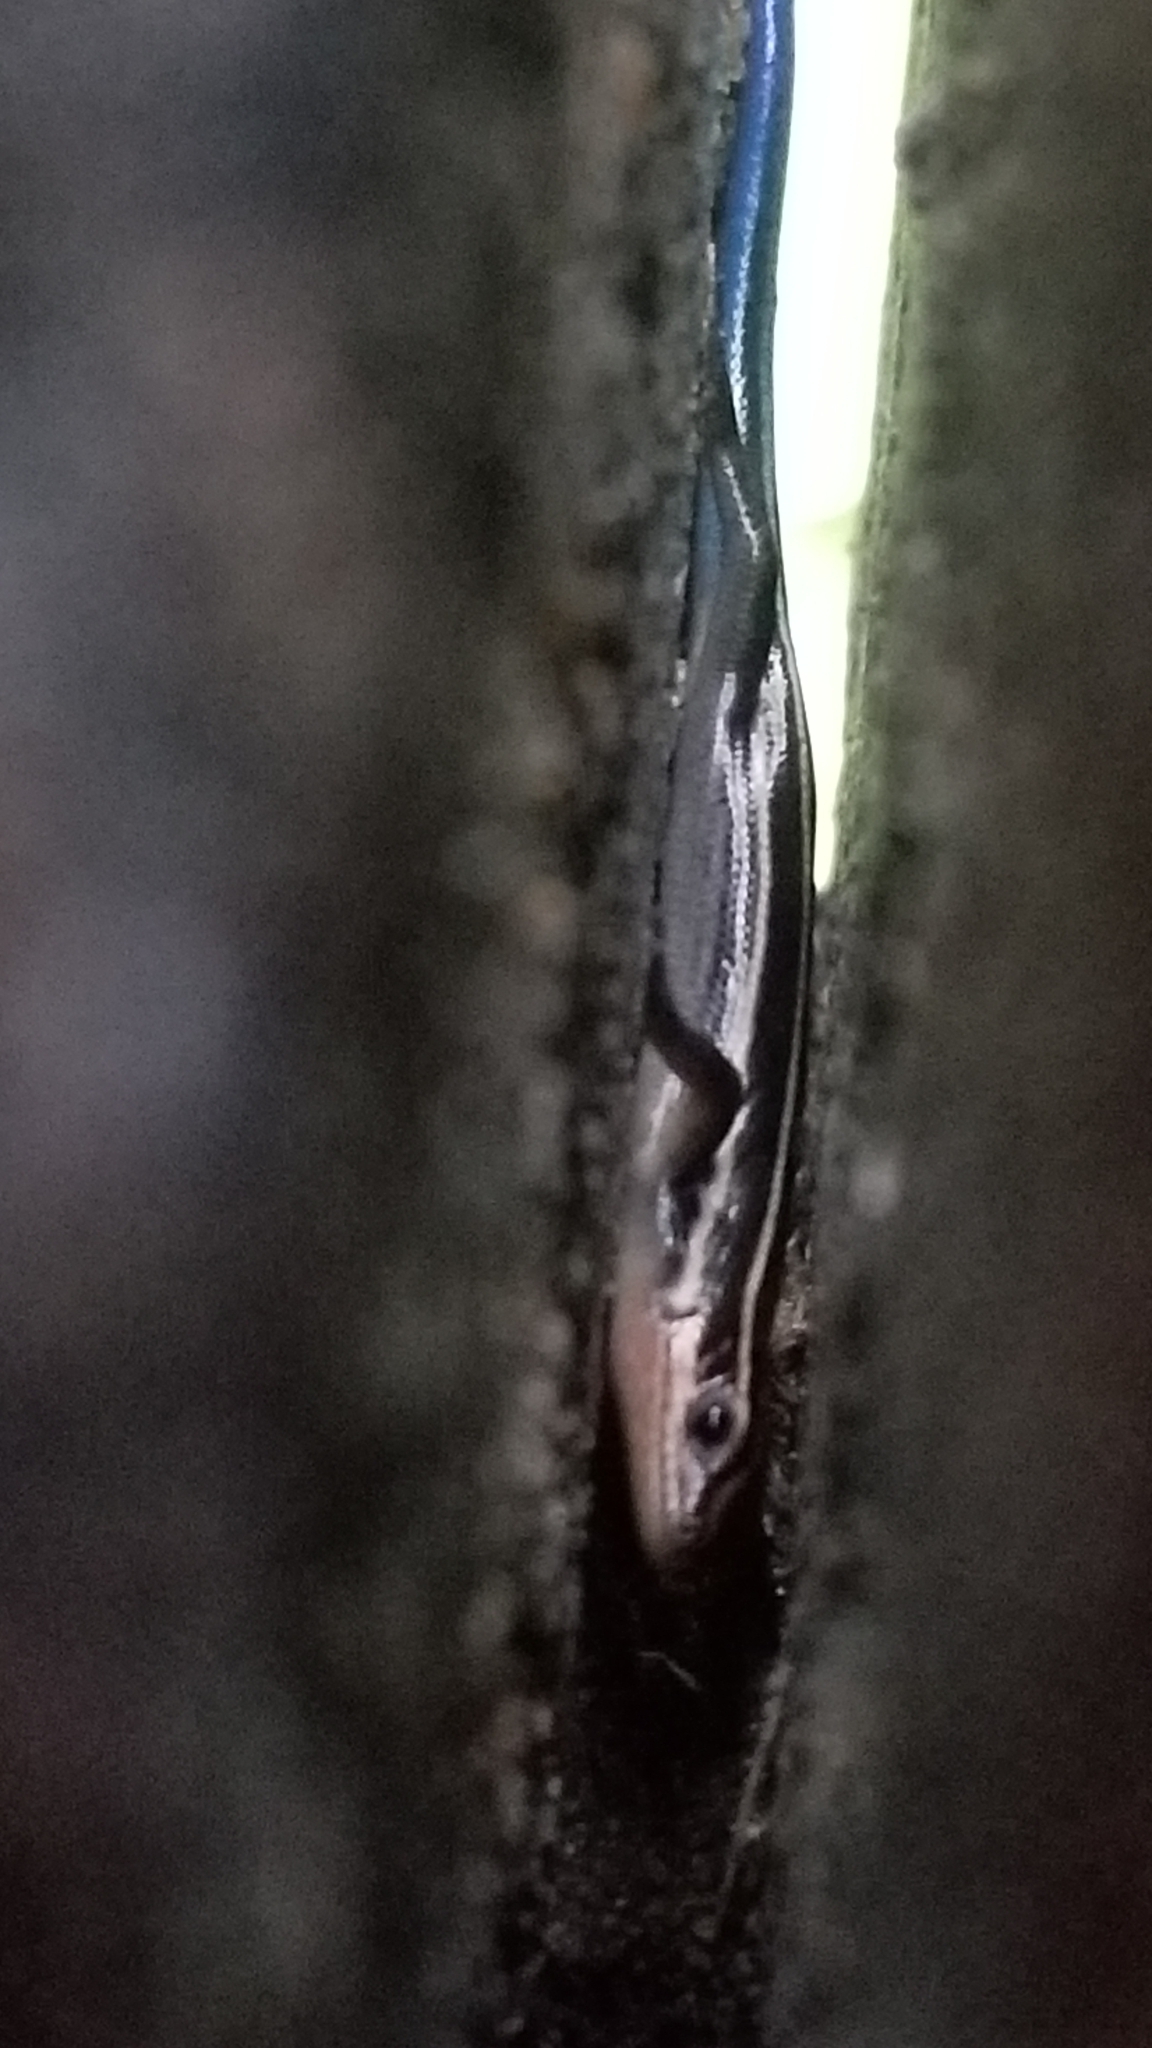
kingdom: Animalia
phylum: Chordata
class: Squamata
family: Scincidae
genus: Plestiodon
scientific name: Plestiodon fasciatus
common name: Five-lined skink
